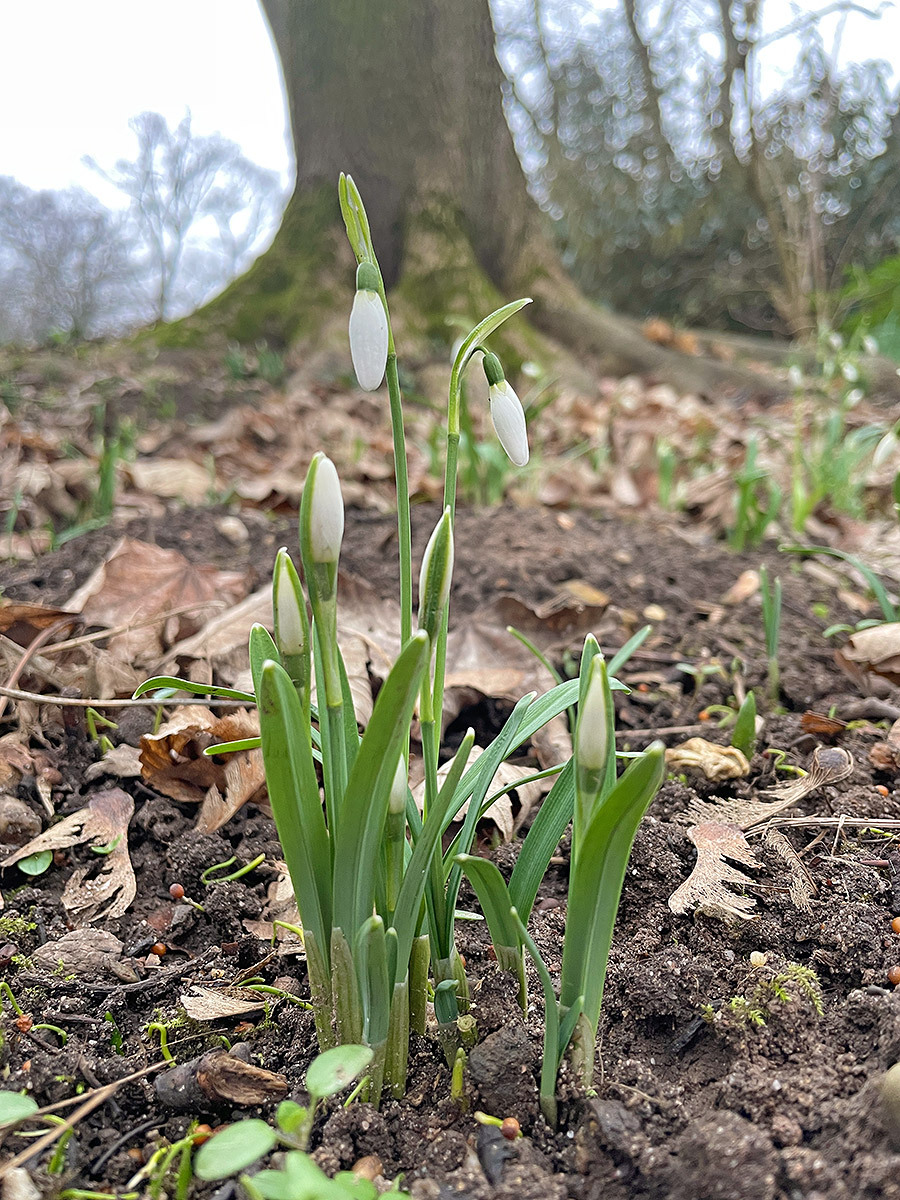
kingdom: Plantae
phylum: Tracheophyta
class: Liliopsida
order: Asparagales
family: Amaryllidaceae
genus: Galanthus
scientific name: Galanthus nivalis
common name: Snowdrop
